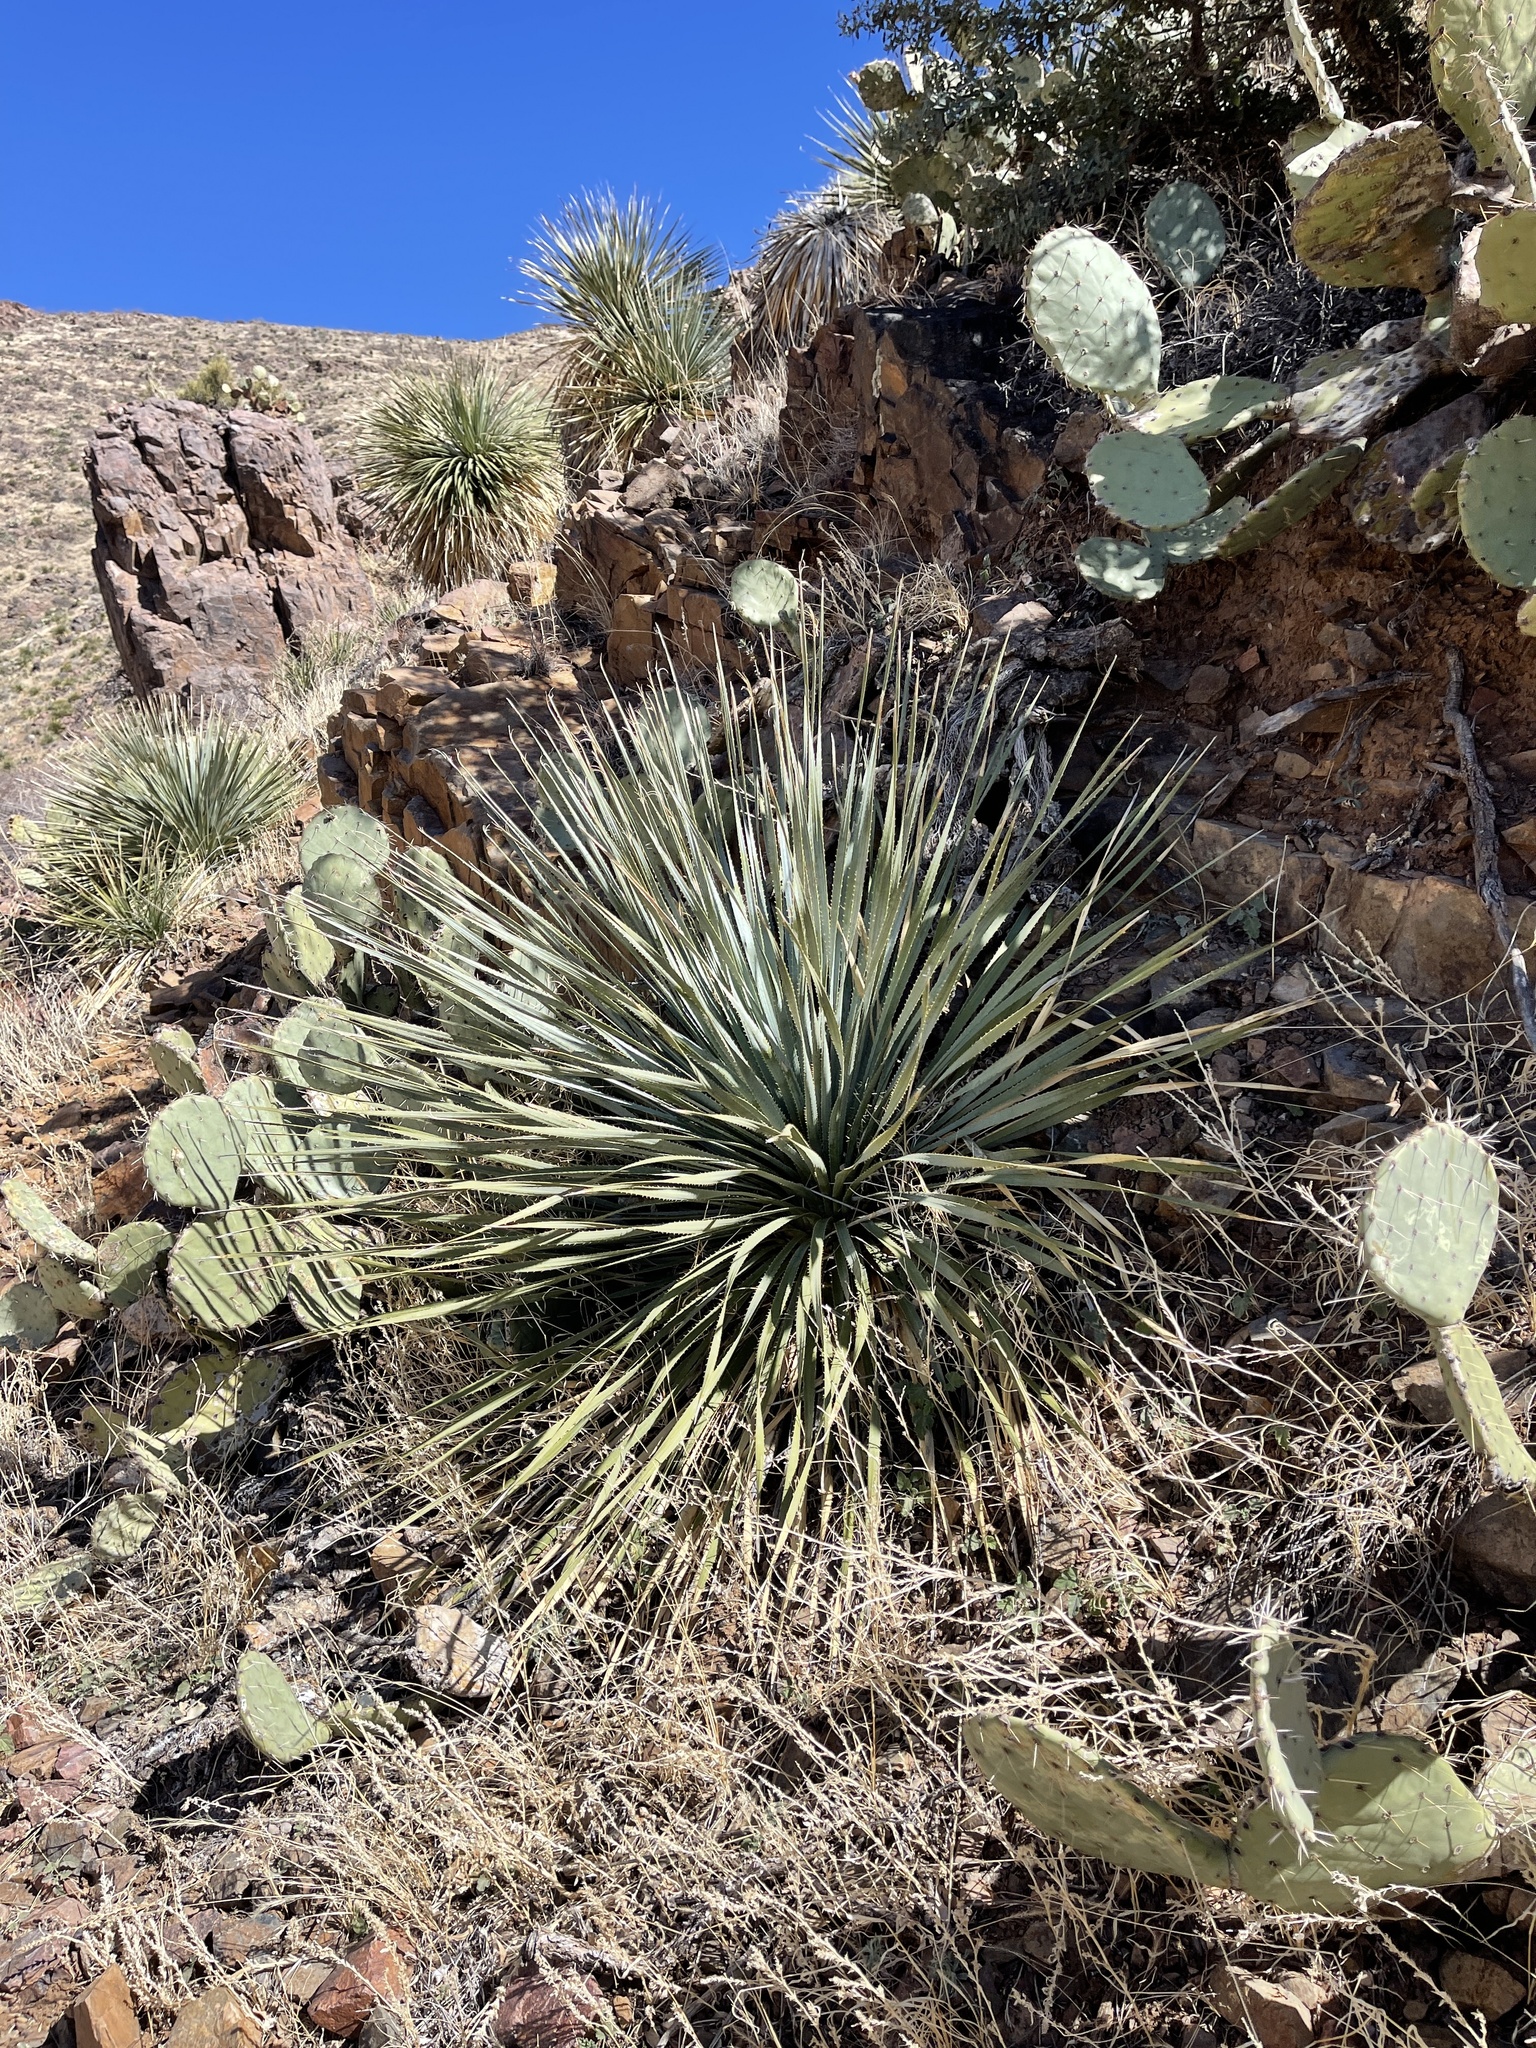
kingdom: Plantae
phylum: Tracheophyta
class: Liliopsida
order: Asparagales
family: Asparagaceae
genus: Dasylirion
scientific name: Dasylirion wheeleri
